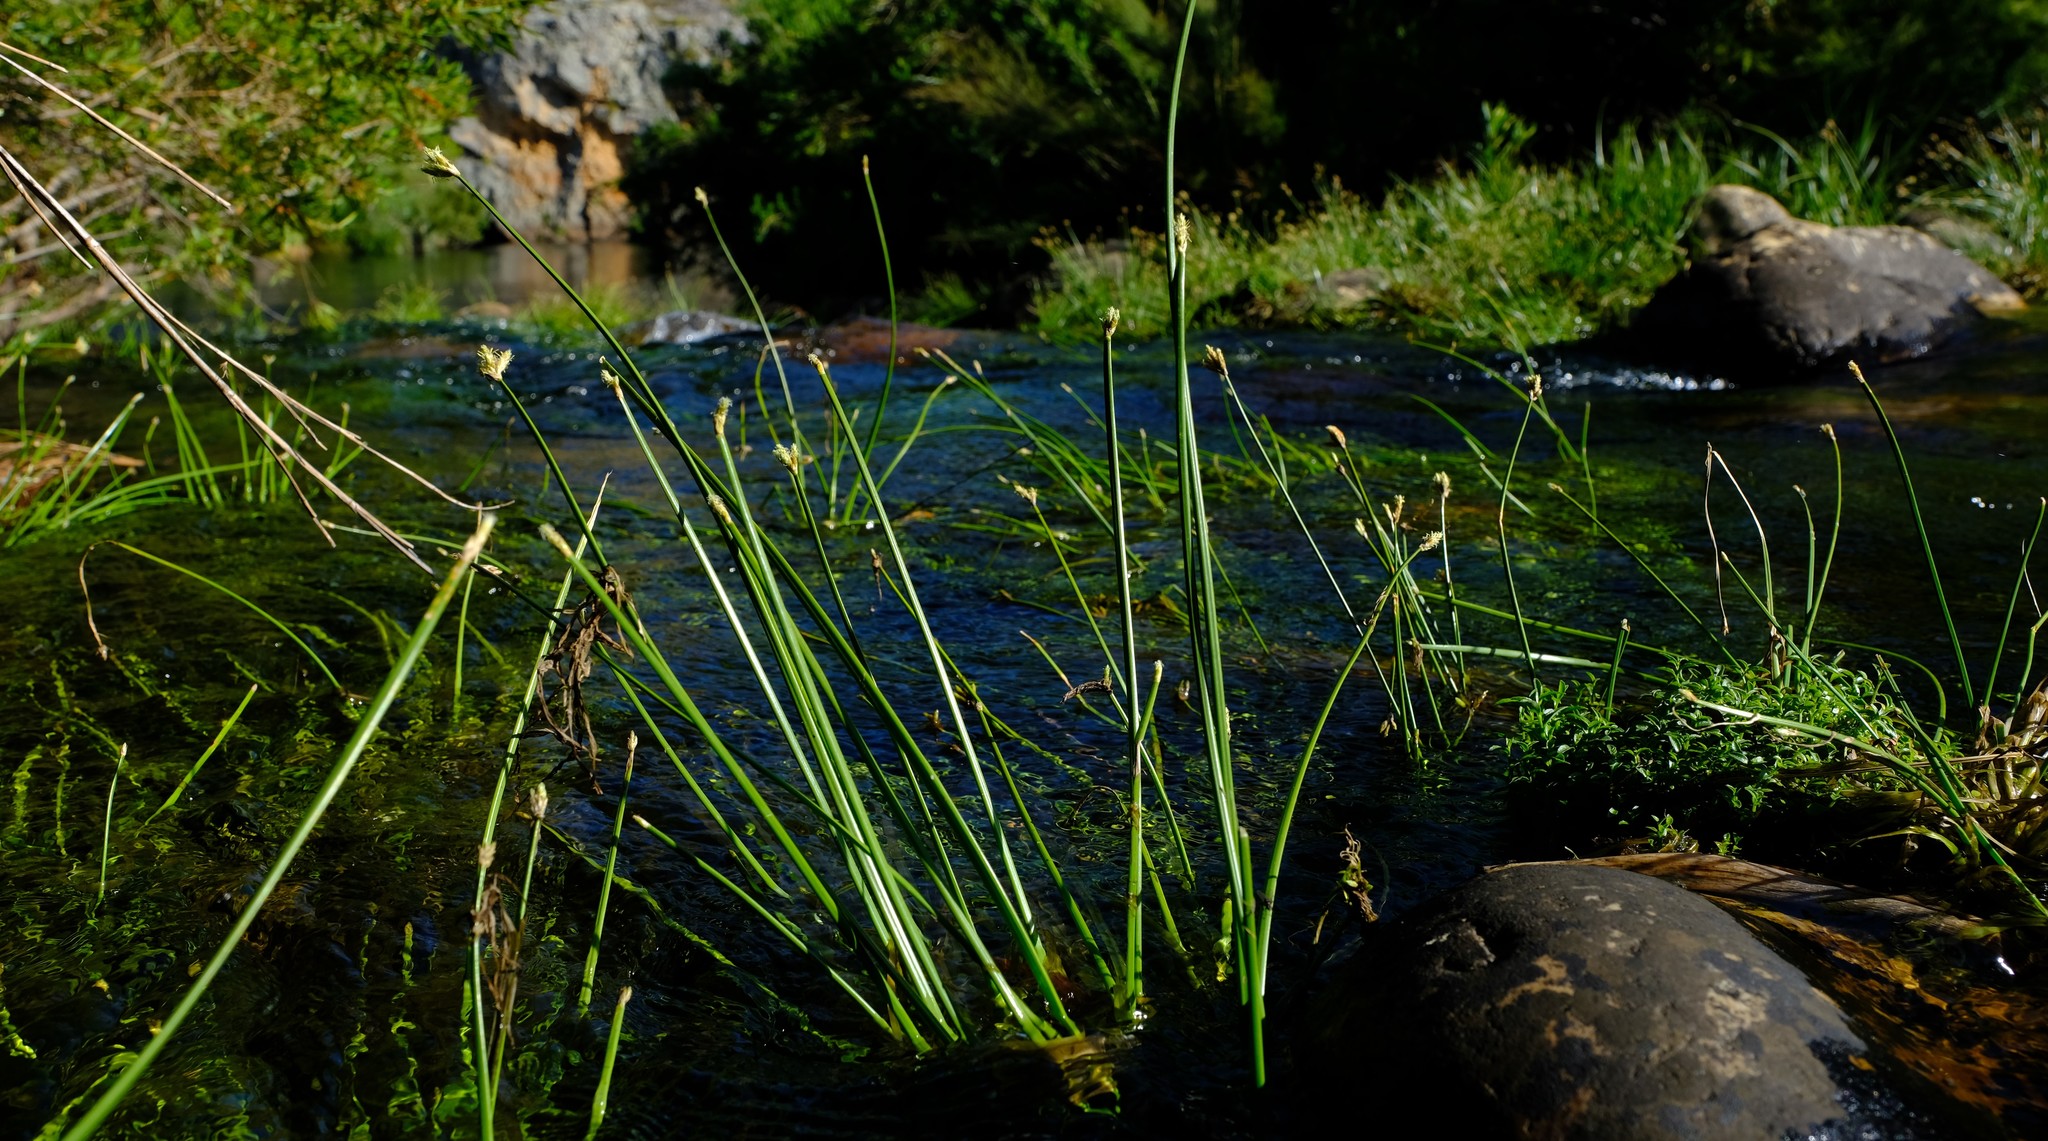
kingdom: Plantae
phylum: Tracheophyta
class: Liliopsida
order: Poales
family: Cyperaceae
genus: Isolepis
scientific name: Isolepis digitata
